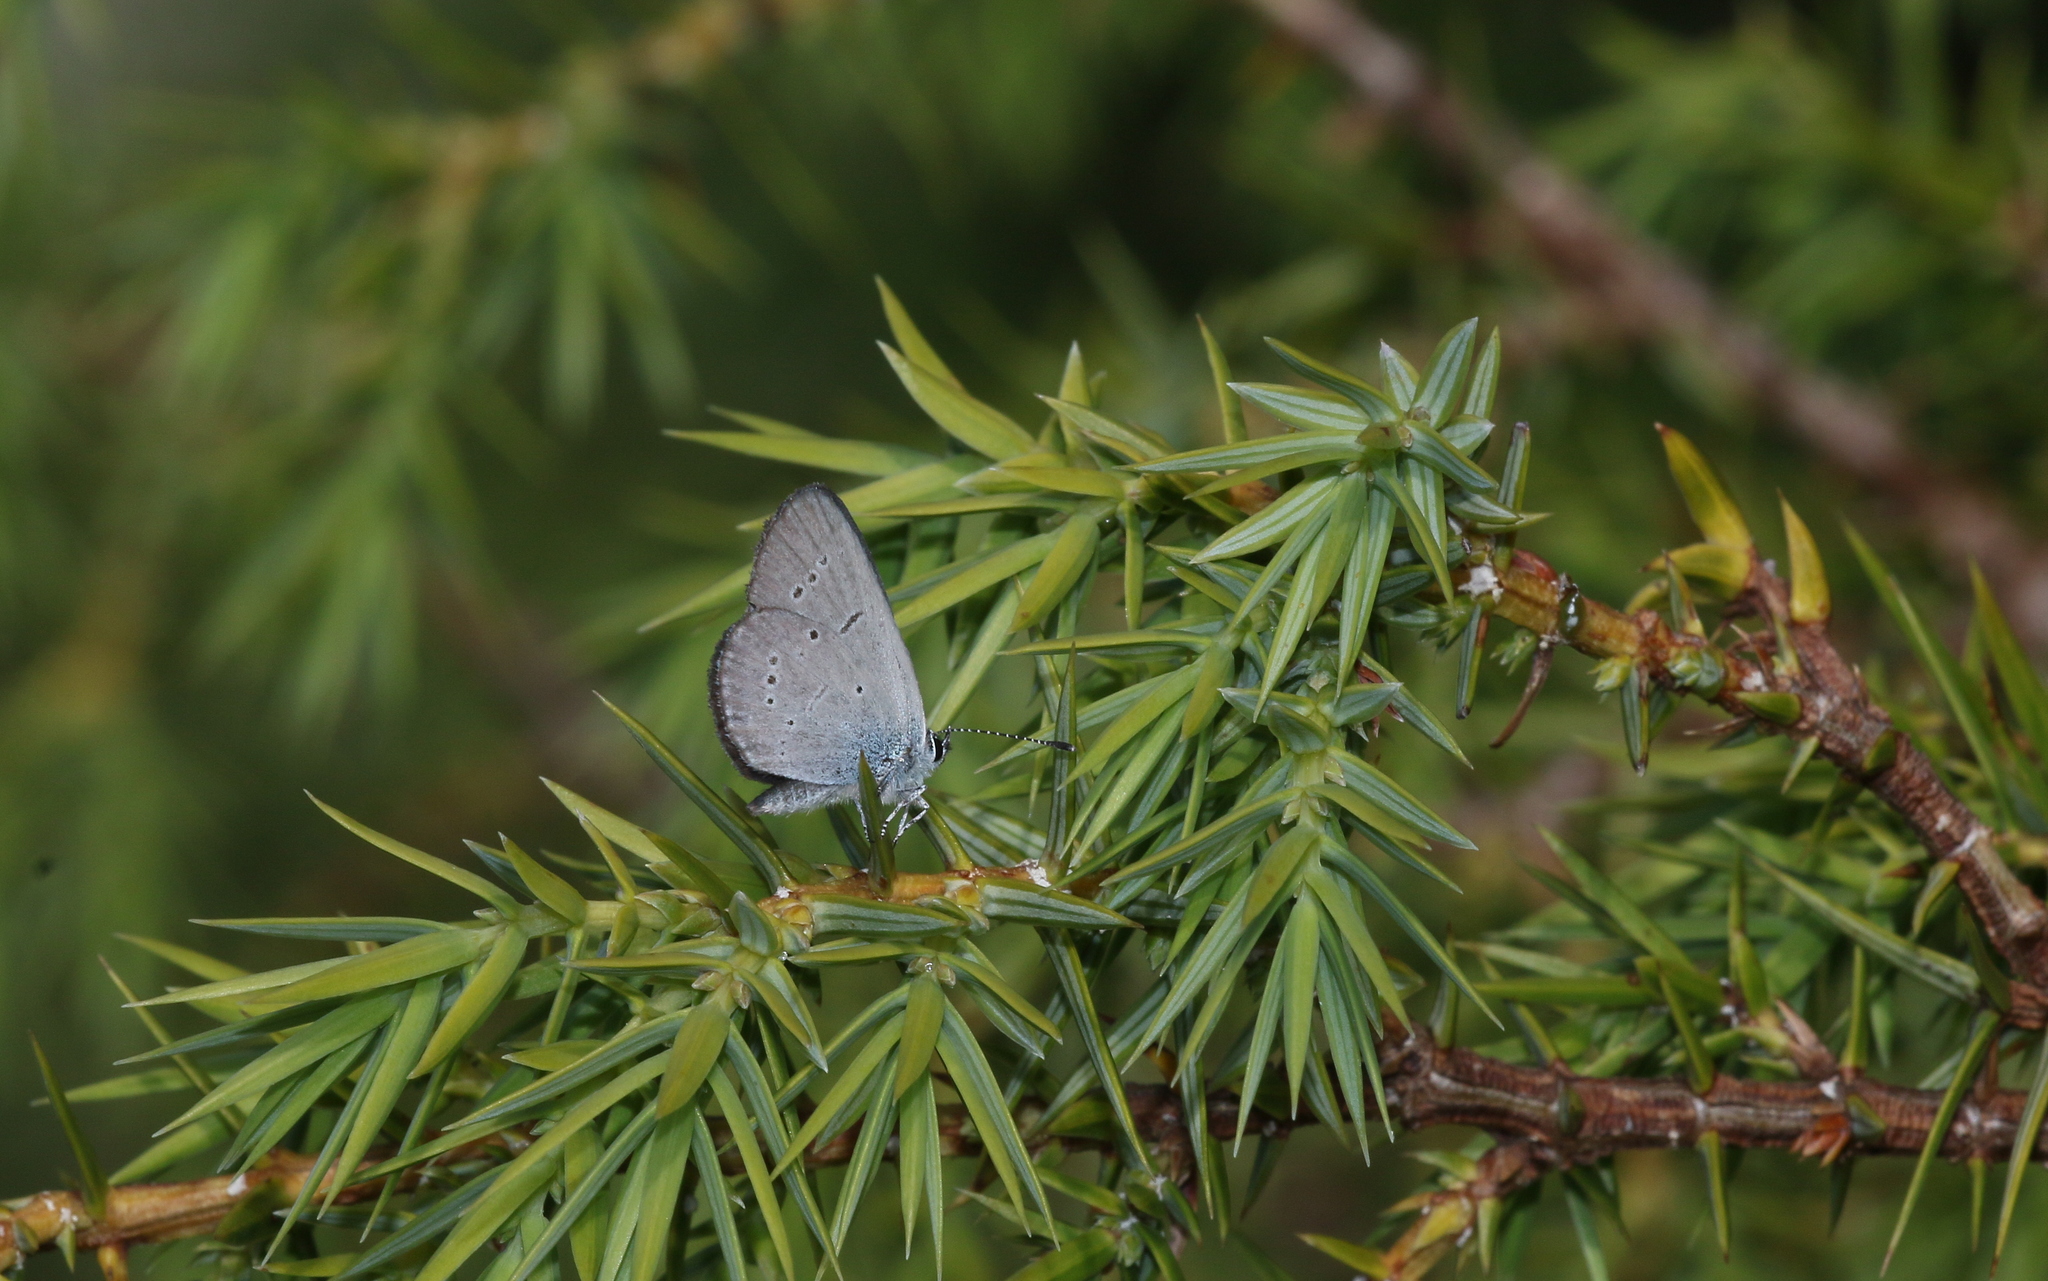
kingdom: Animalia
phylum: Arthropoda
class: Insecta
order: Lepidoptera
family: Lycaenidae
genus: Cupido
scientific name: Cupido minimus
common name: Small blue
